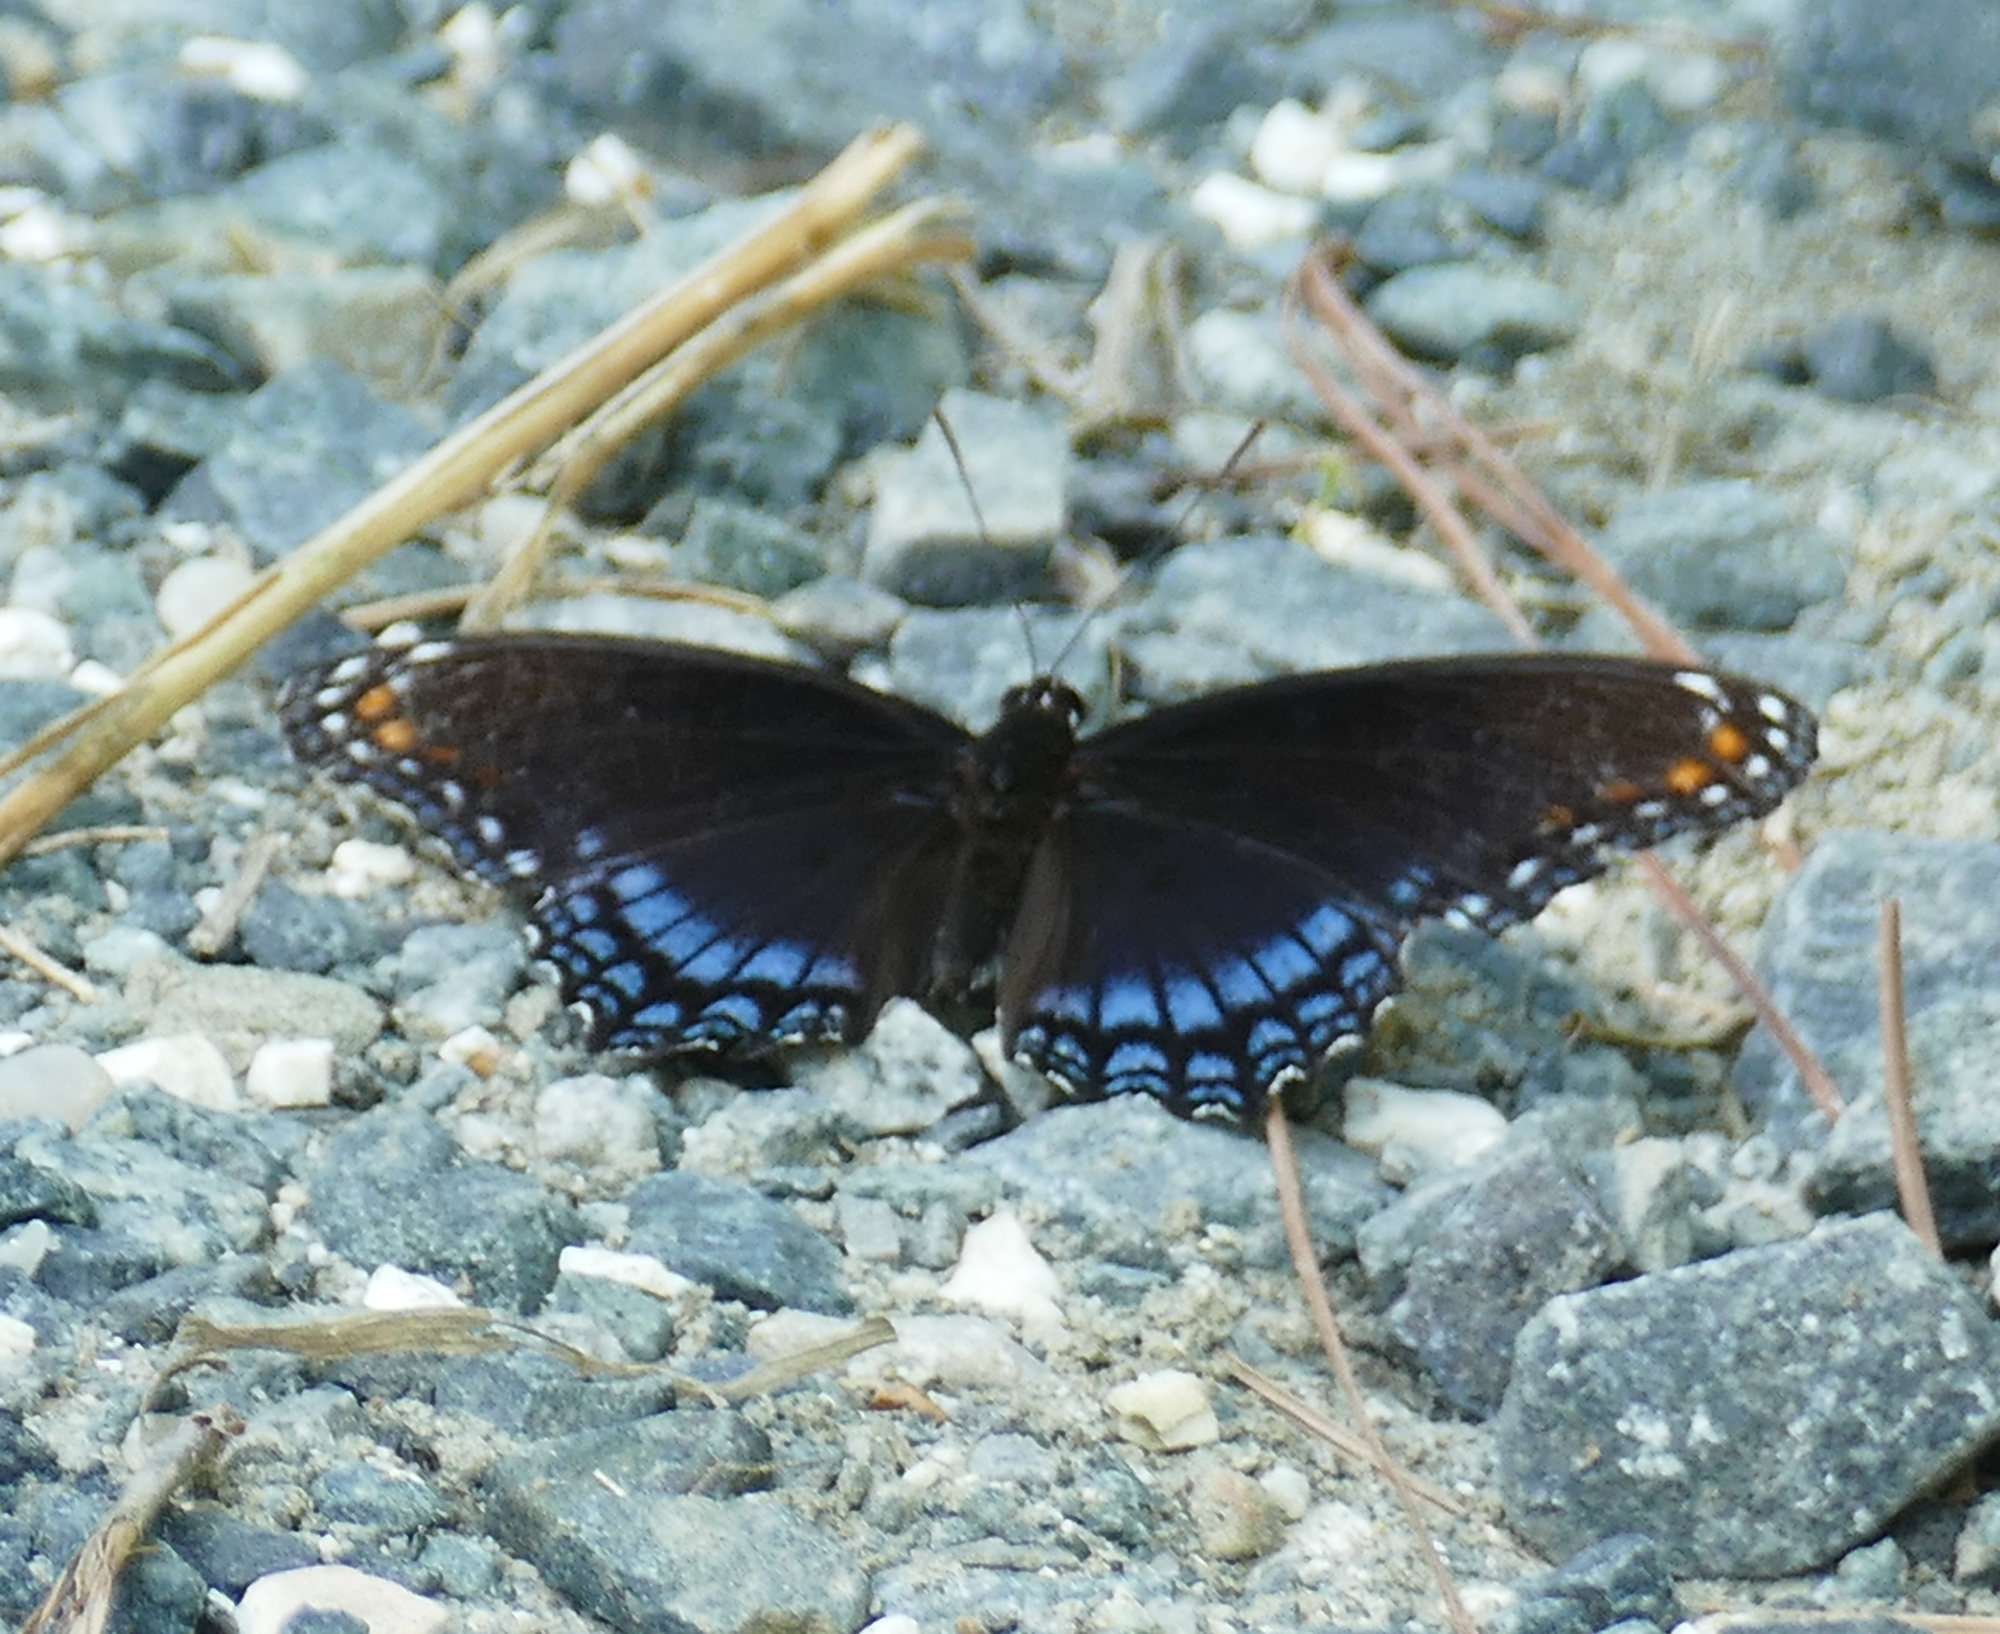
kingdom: Animalia
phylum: Arthropoda
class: Insecta
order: Lepidoptera
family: Nymphalidae
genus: Limenitis
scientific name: Limenitis astyanax
